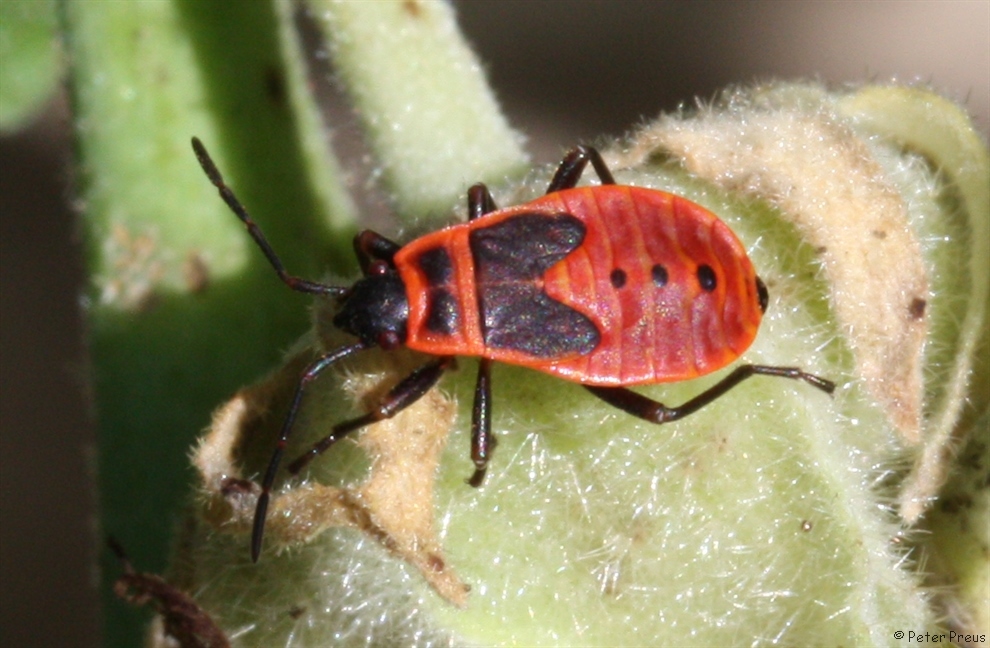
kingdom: Animalia
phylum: Arthropoda
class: Insecta
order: Hemiptera
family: Pyrrhocoridae
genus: Pyrrhocoris
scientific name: Pyrrhocoris apterus
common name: Firebug
